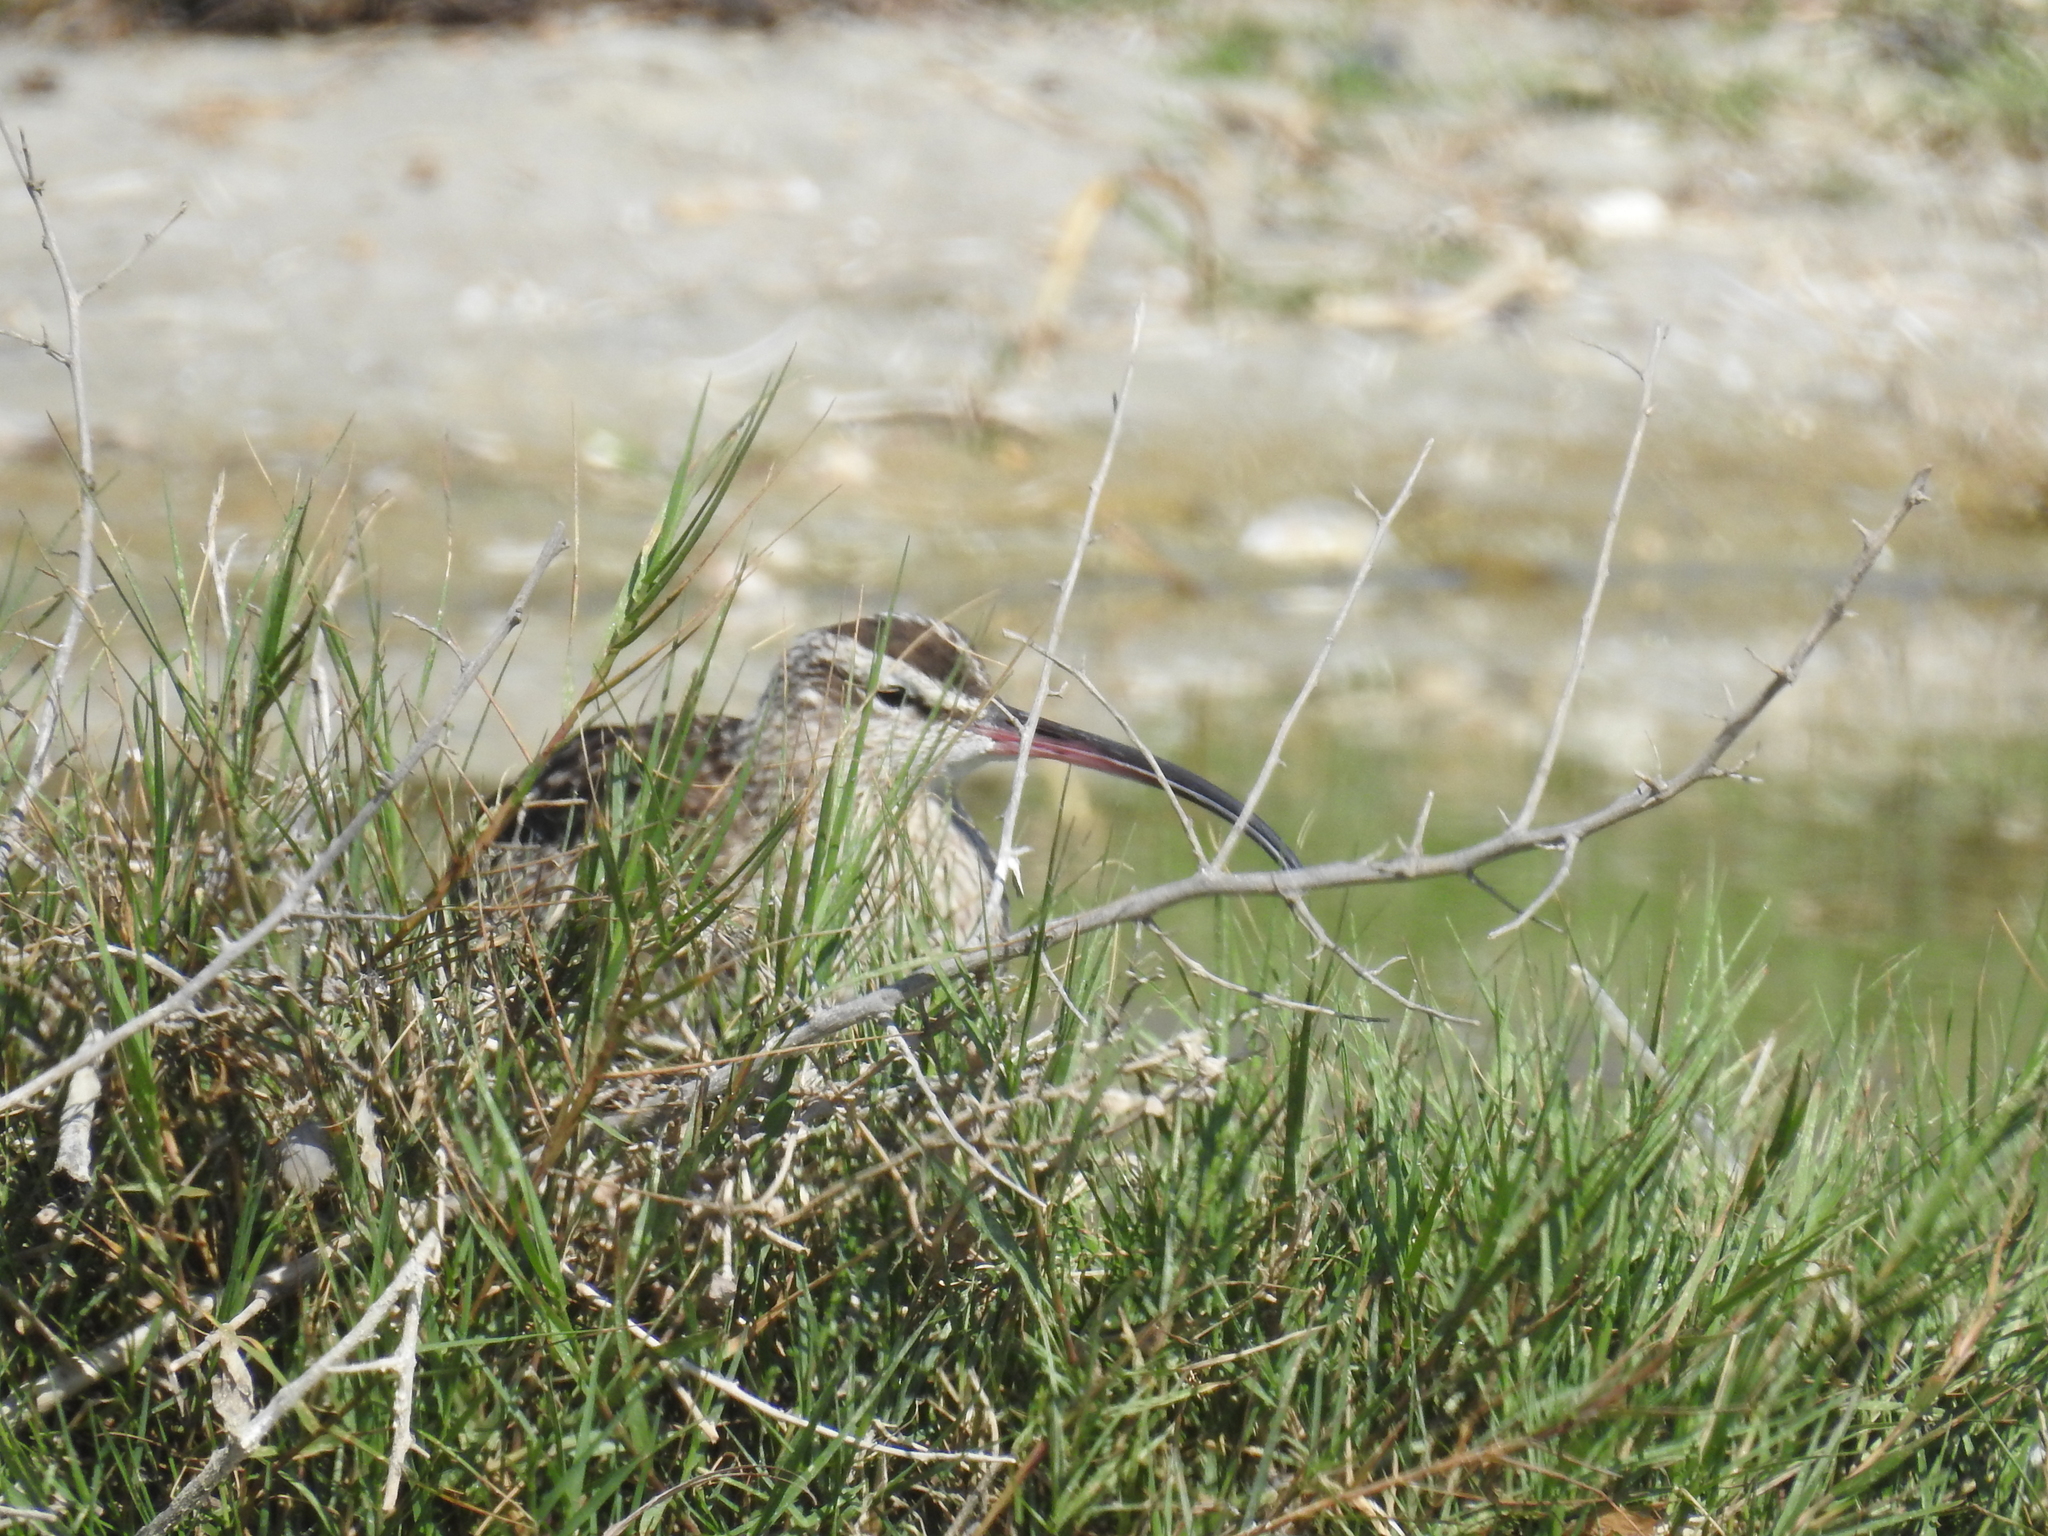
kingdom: Animalia
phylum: Chordata
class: Aves
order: Charadriiformes
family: Scolopacidae
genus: Numenius
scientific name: Numenius phaeopus
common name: Whimbrel
